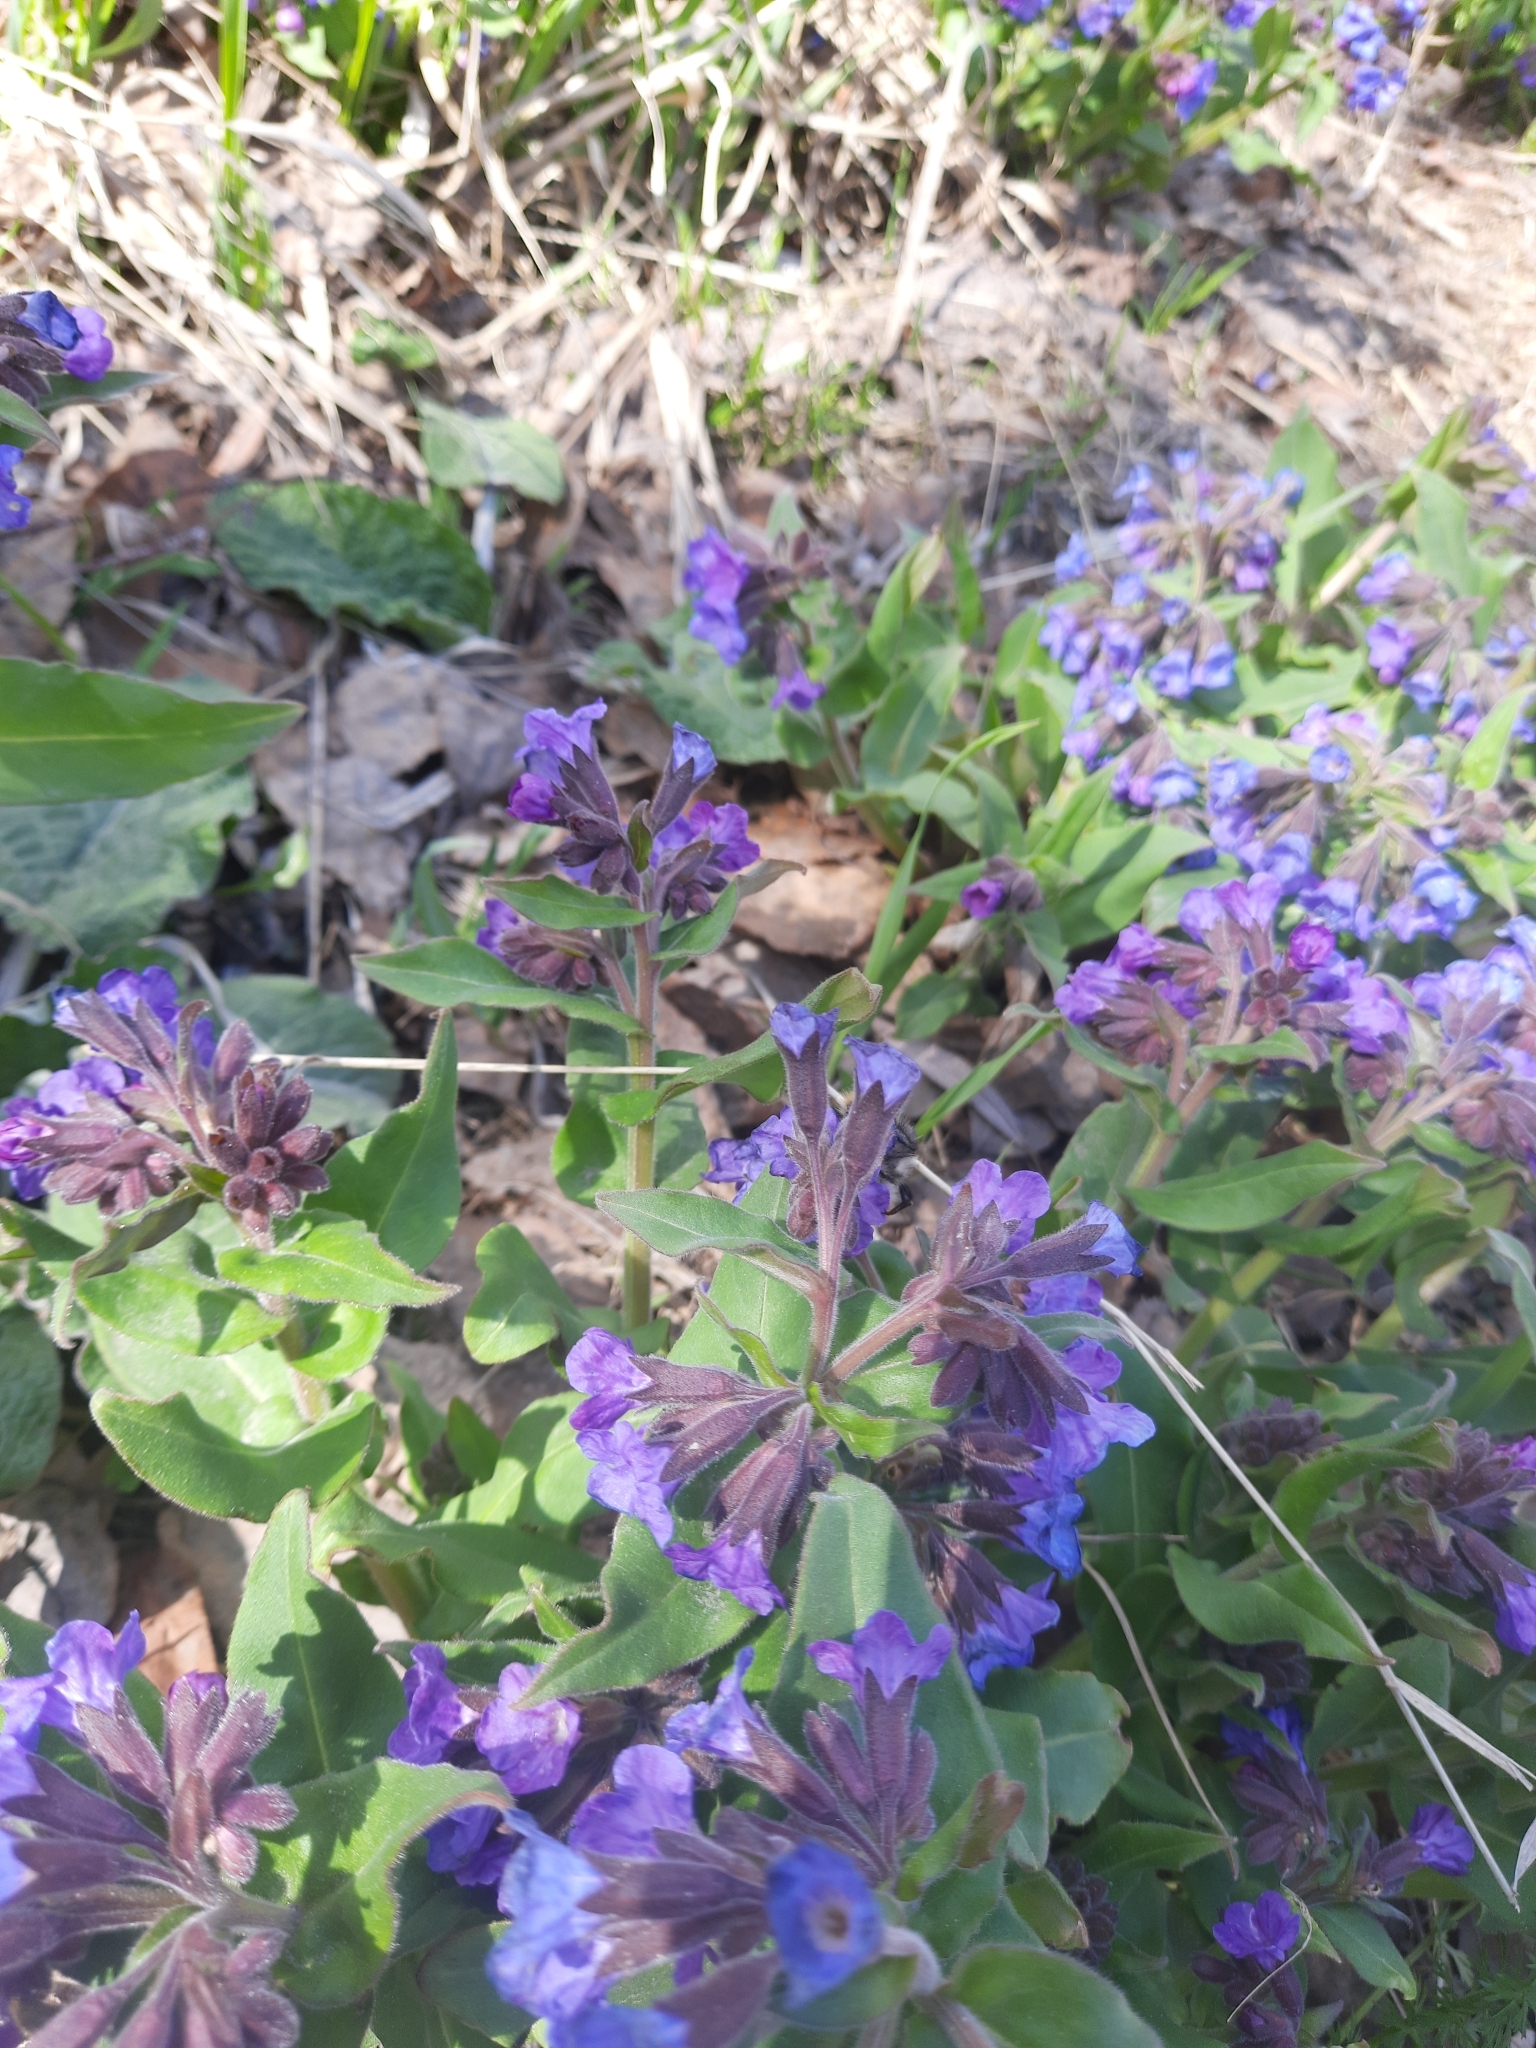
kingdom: Plantae
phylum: Tracheophyta
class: Magnoliopsida
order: Boraginales
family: Boraginaceae
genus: Pulmonaria
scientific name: Pulmonaria mollis
